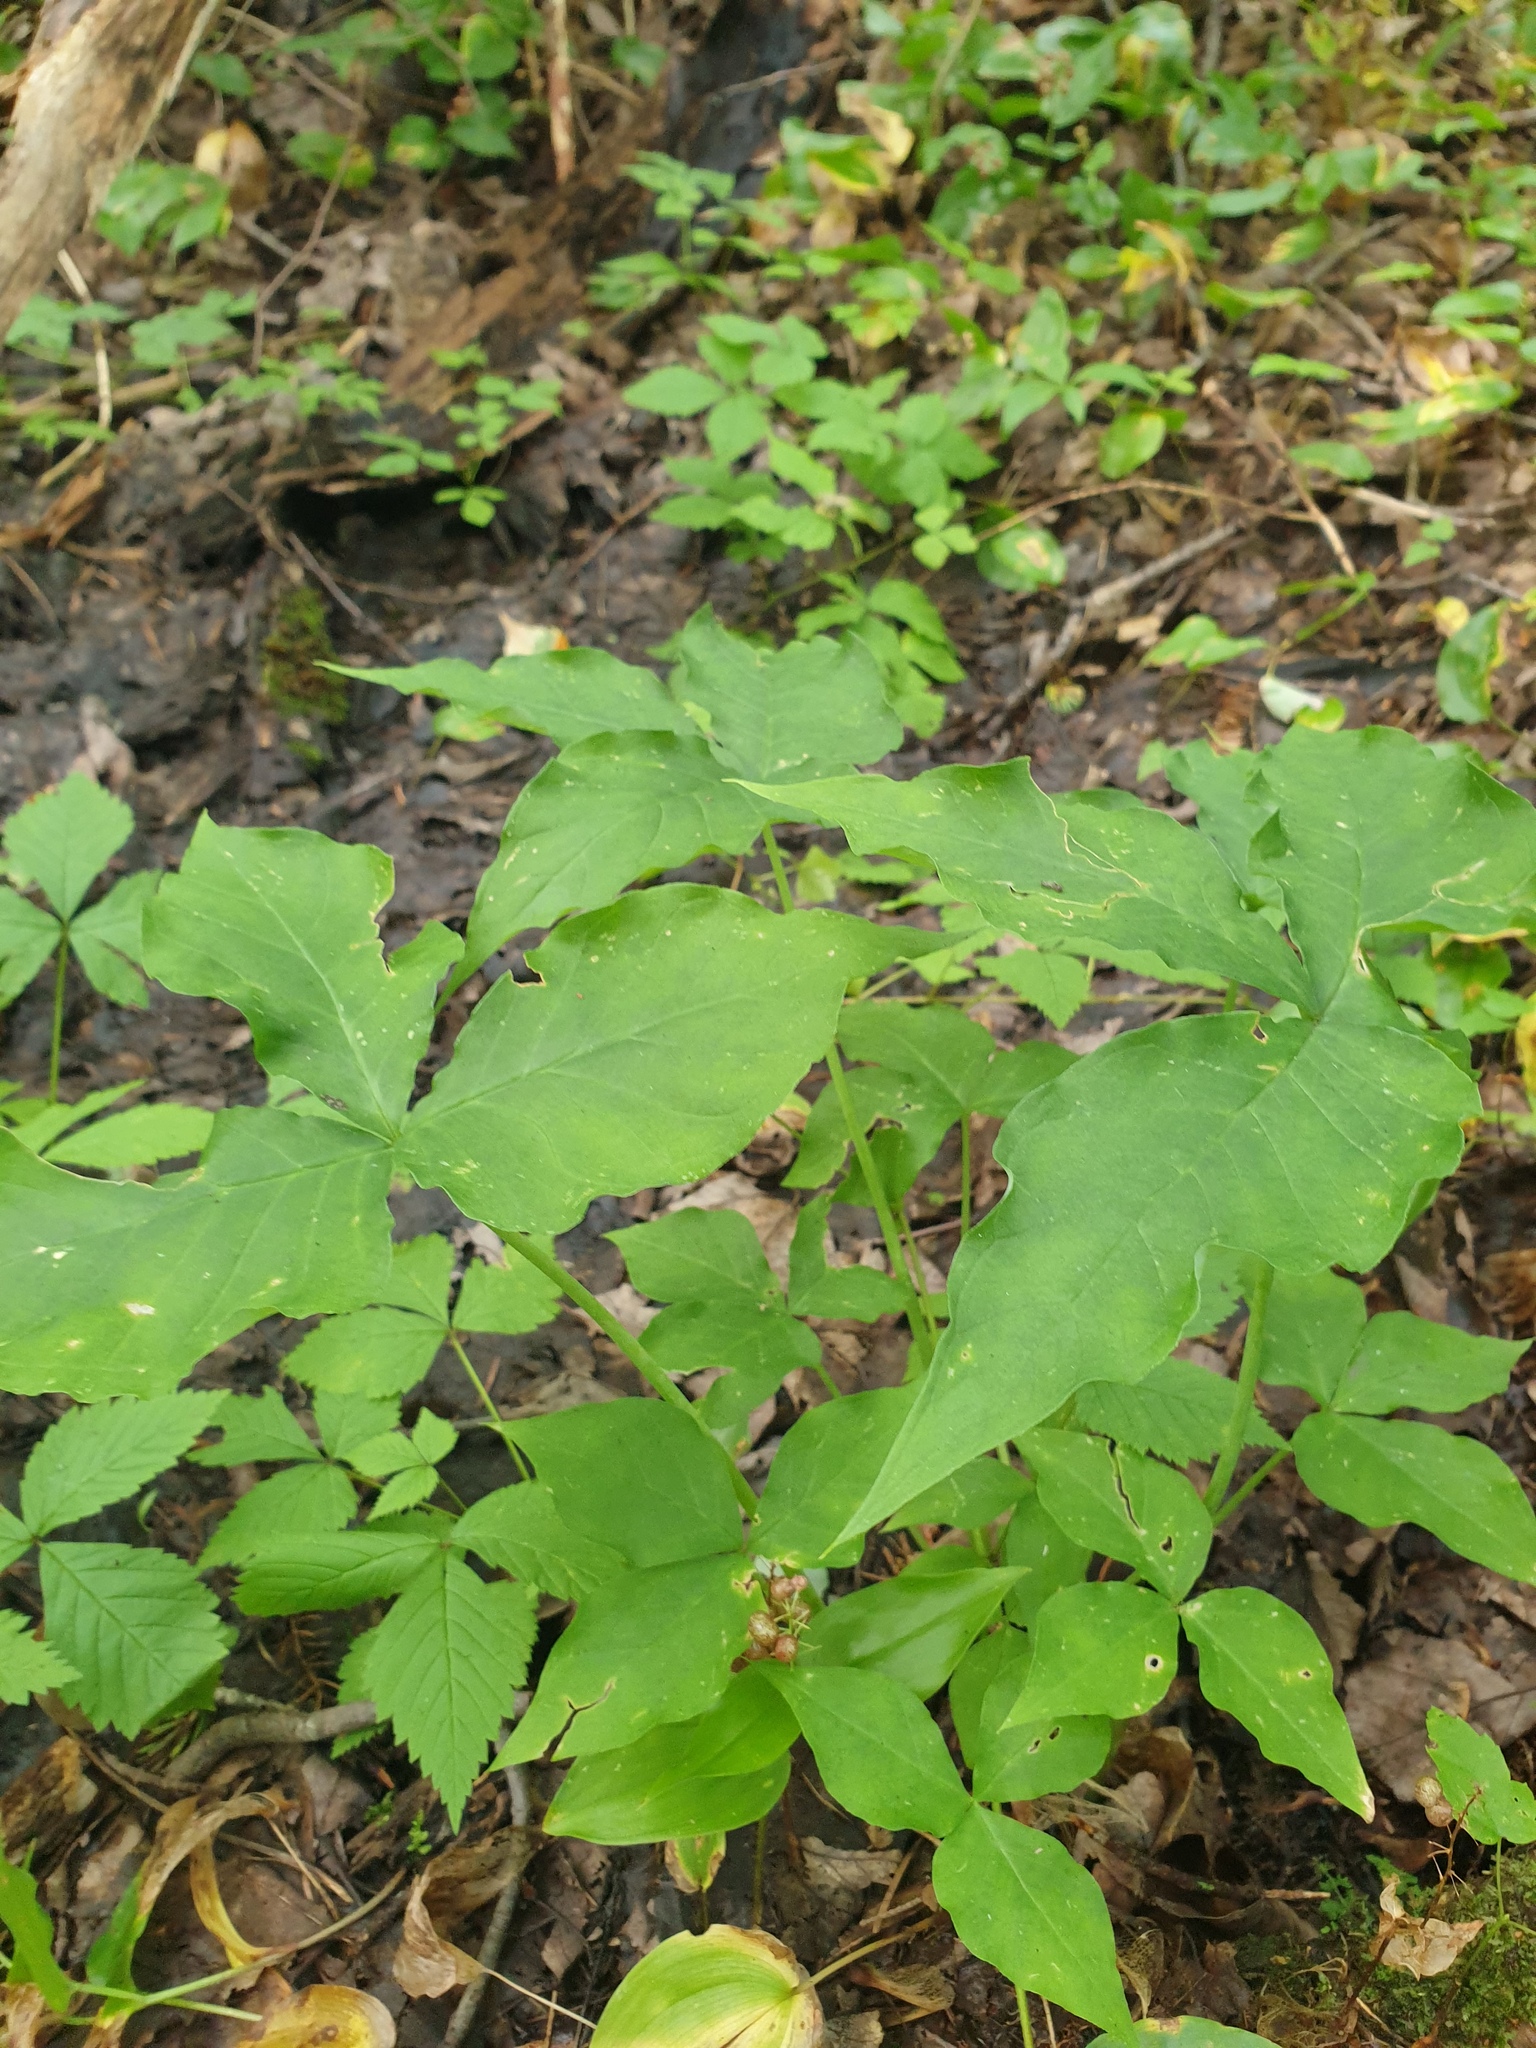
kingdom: Plantae
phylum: Tracheophyta
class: Liliopsida
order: Alismatales
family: Araceae
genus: Arisaema
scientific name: Arisaema triphyllum
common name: Jack-in-the-pulpit
